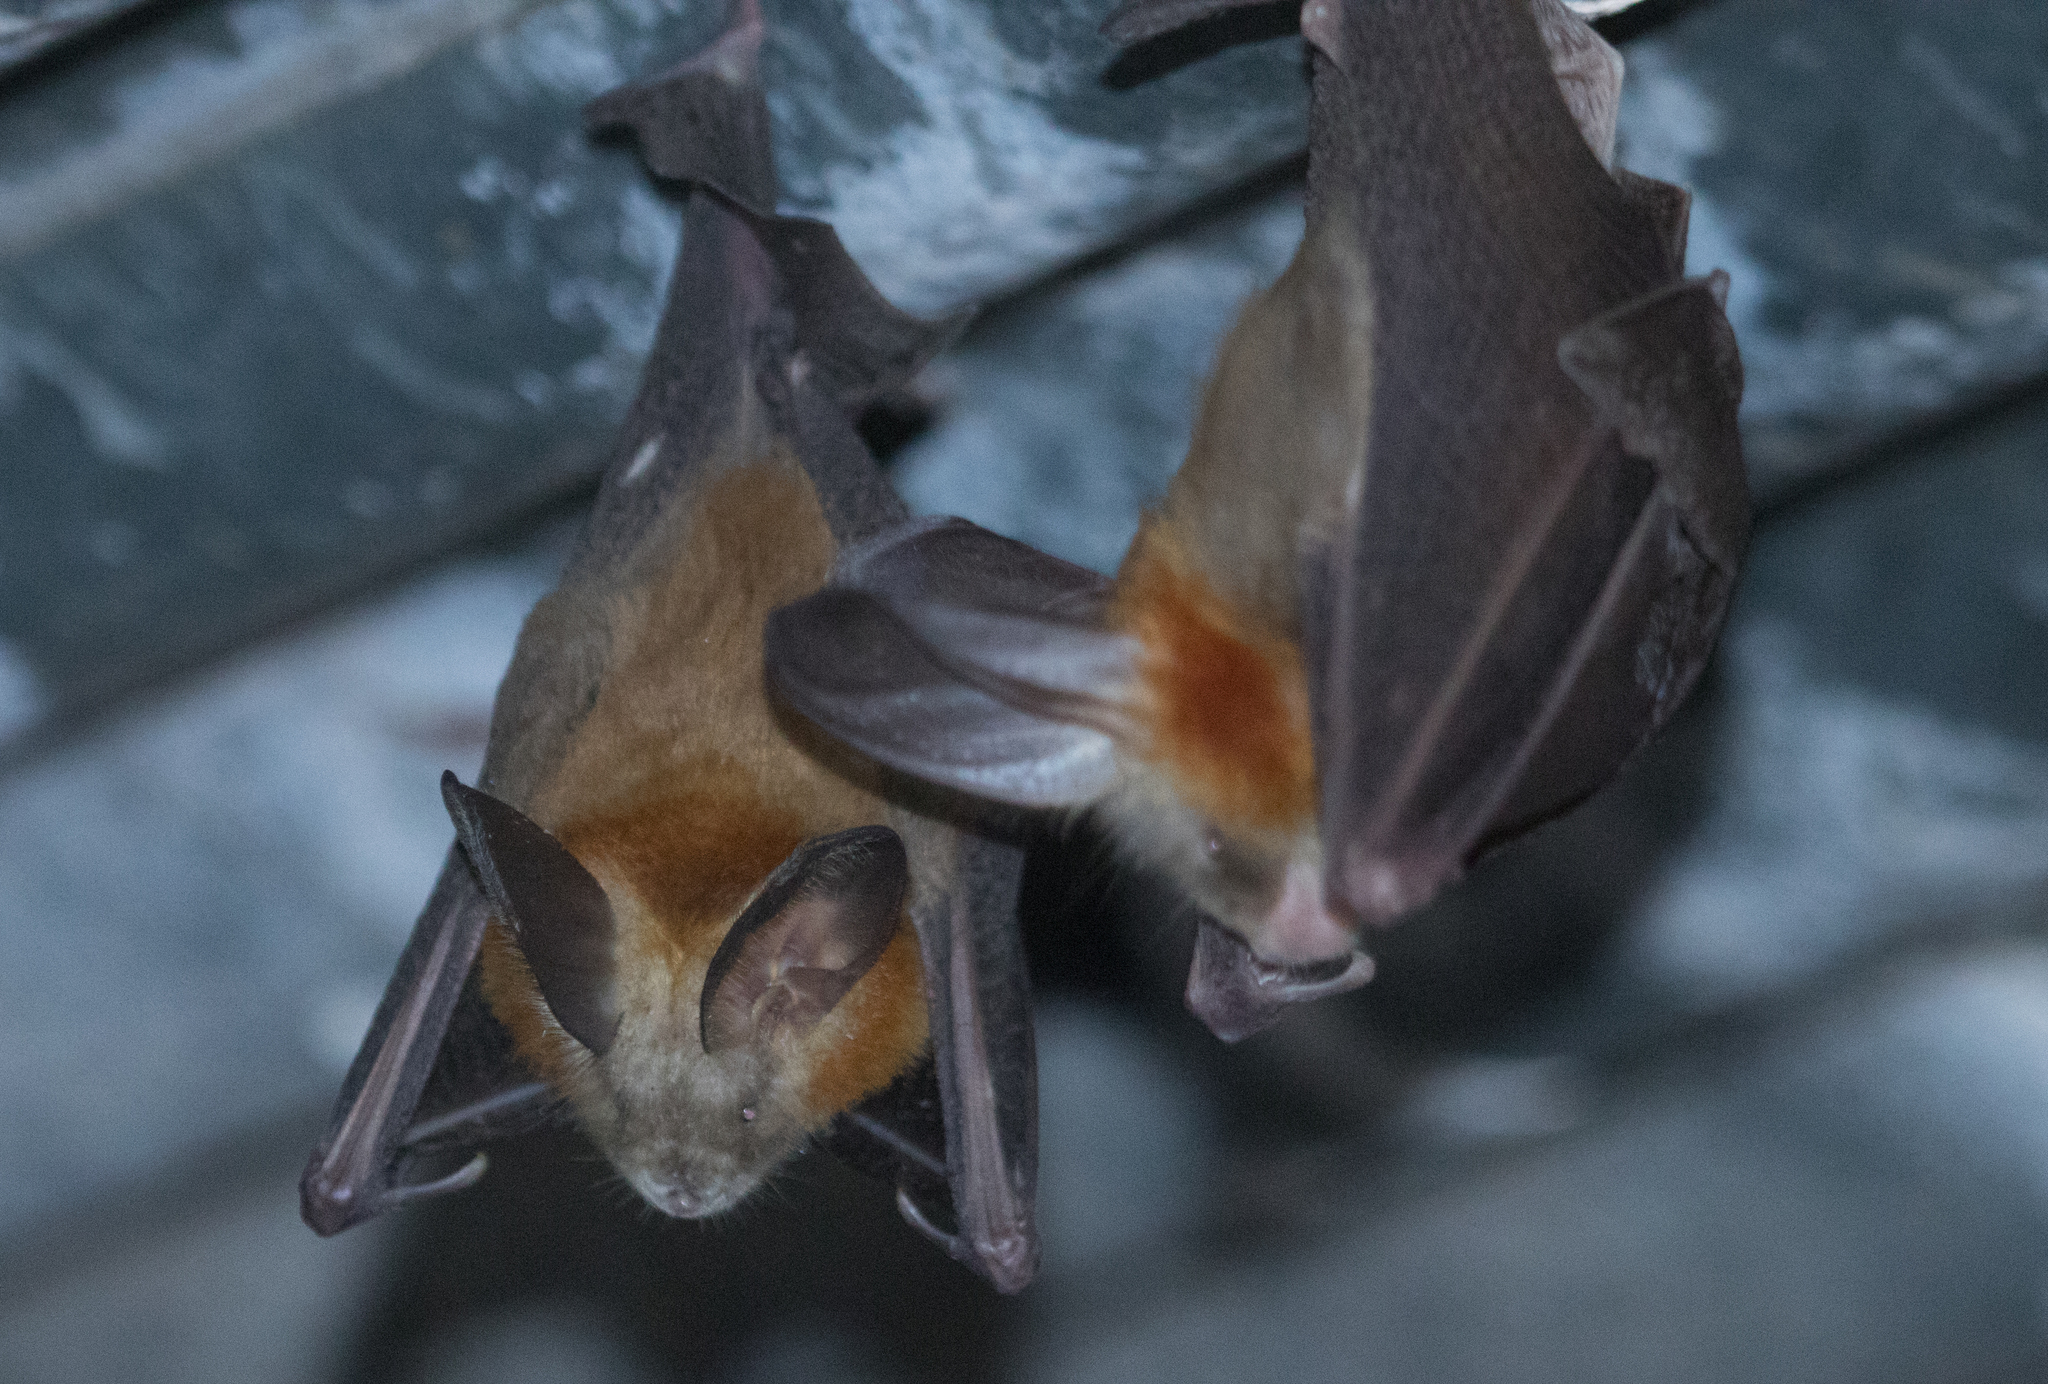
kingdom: Animalia
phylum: Chordata
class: Mammalia
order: Chiroptera
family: Nycteridae
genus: Nycteris
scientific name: Nycteris thebaica
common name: Egyptian slit-faced bat
